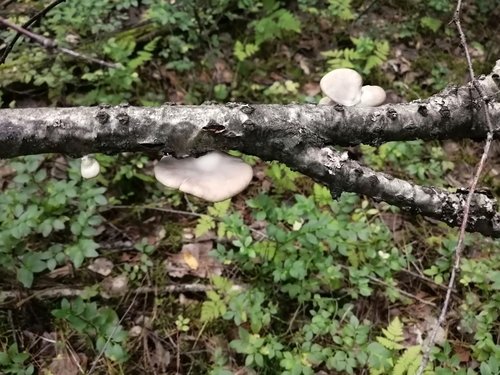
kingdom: Fungi
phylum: Basidiomycota
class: Agaricomycetes
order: Agaricales
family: Pleurotaceae
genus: Pleurotus
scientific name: Pleurotus ostreatus
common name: Oyster mushroom
